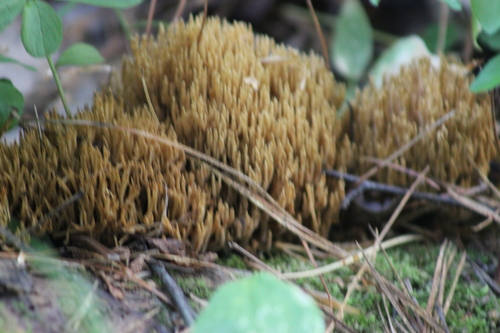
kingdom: Fungi
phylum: Basidiomycota
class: Agaricomycetes
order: Gomphales
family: Gomphaceae
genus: Ramaria
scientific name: Ramaria
